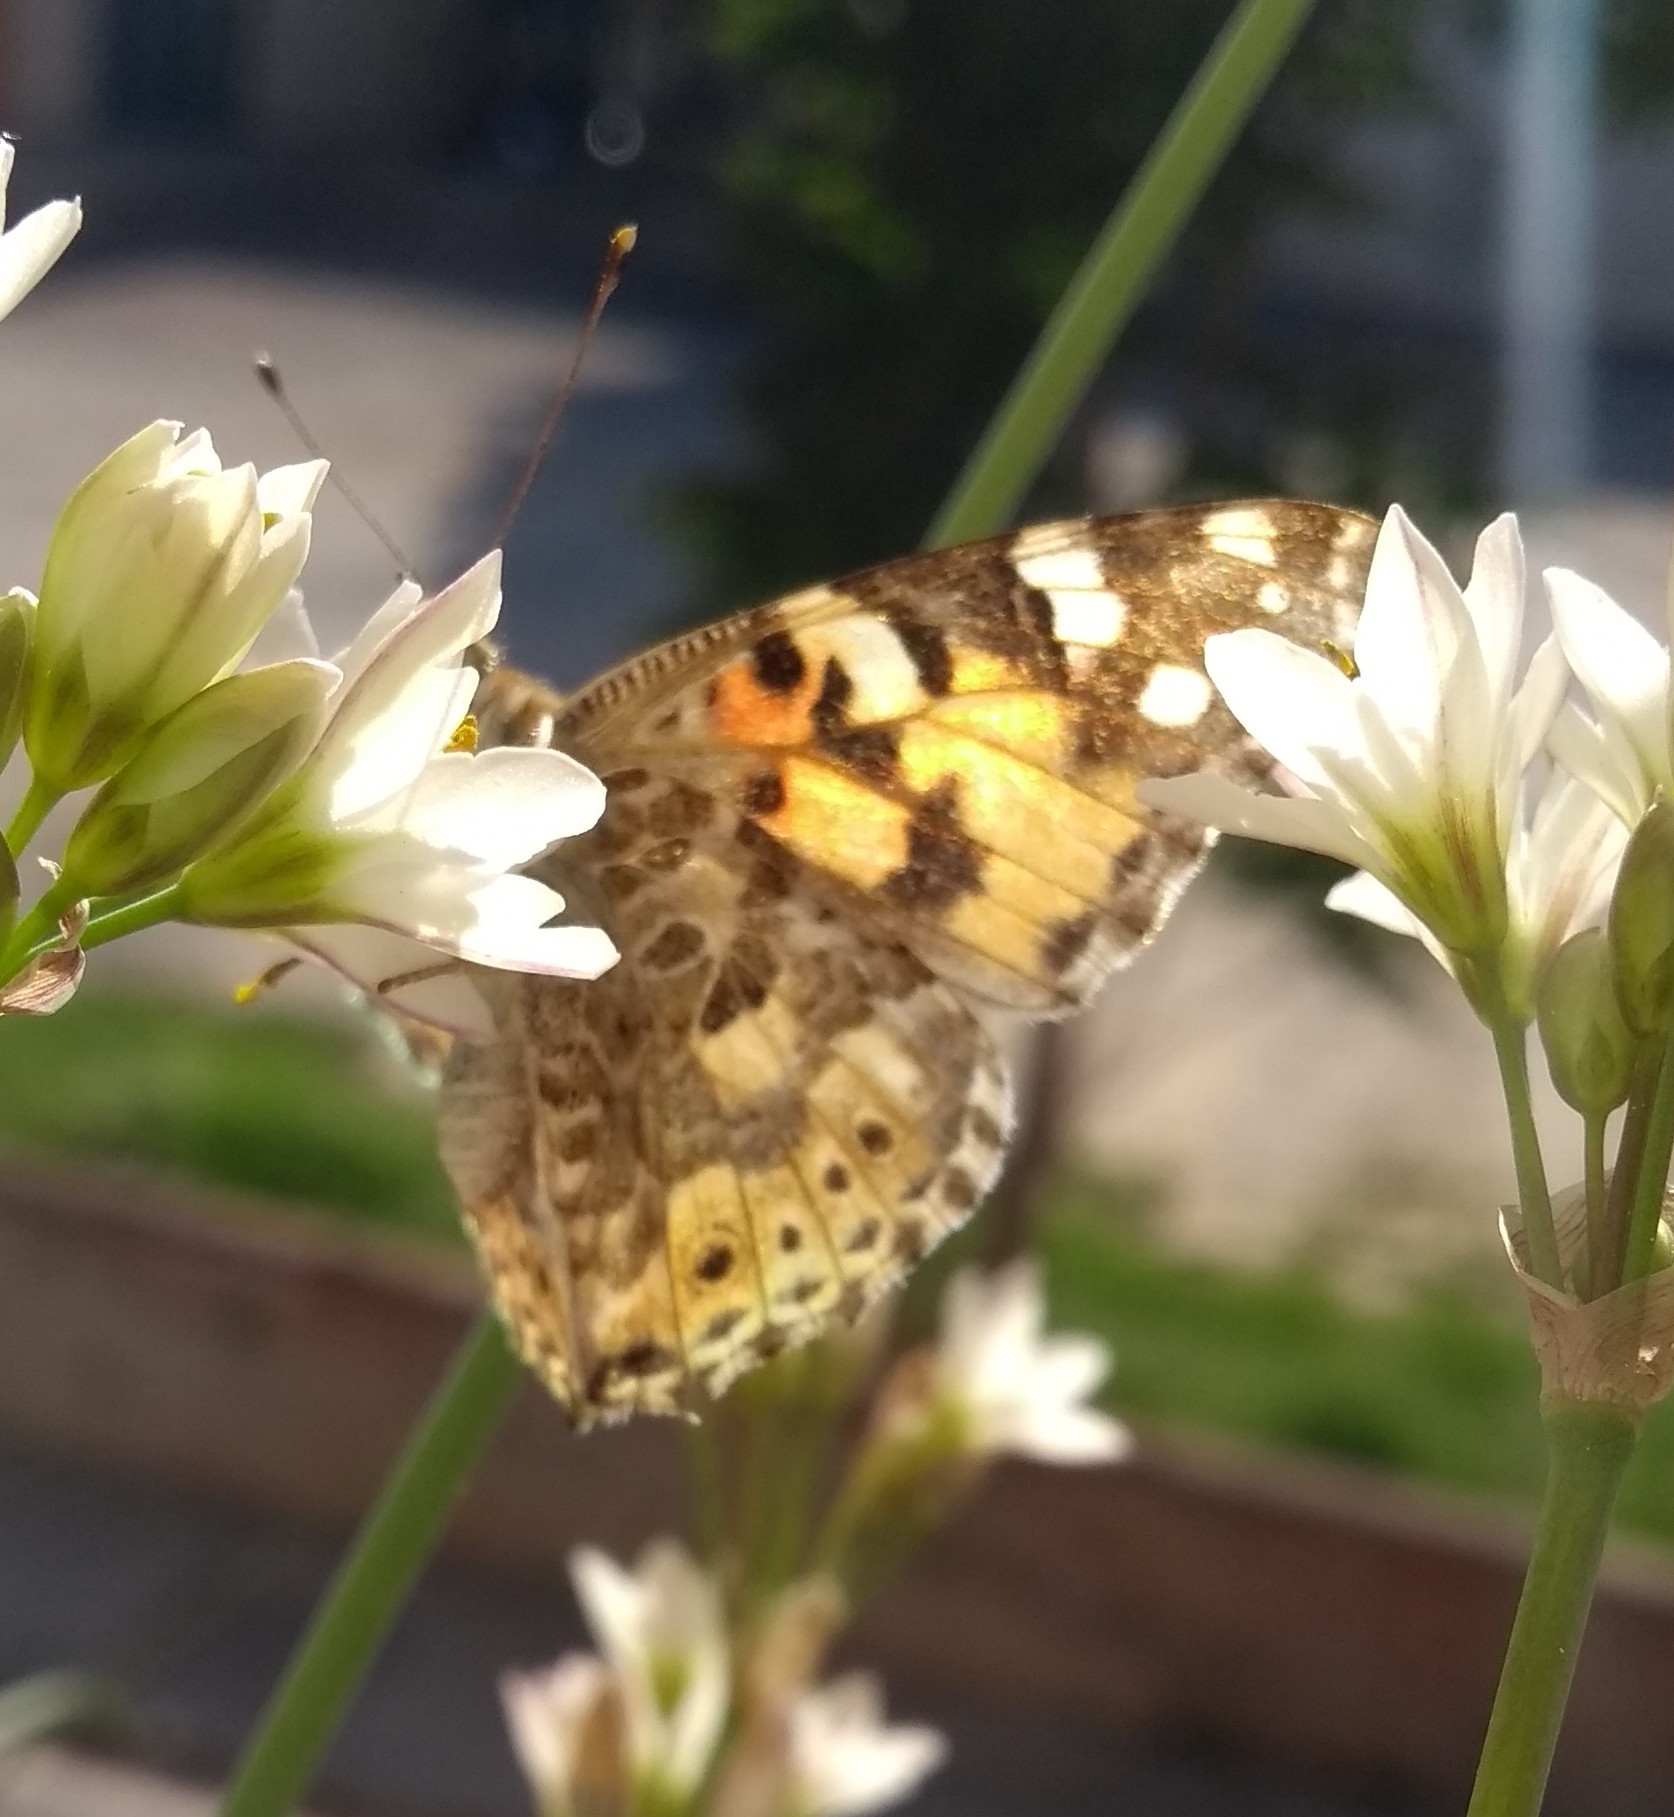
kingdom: Animalia
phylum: Arthropoda
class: Insecta
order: Lepidoptera
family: Nymphalidae
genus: Vanessa
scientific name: Vanessa cardui
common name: Painted lady
